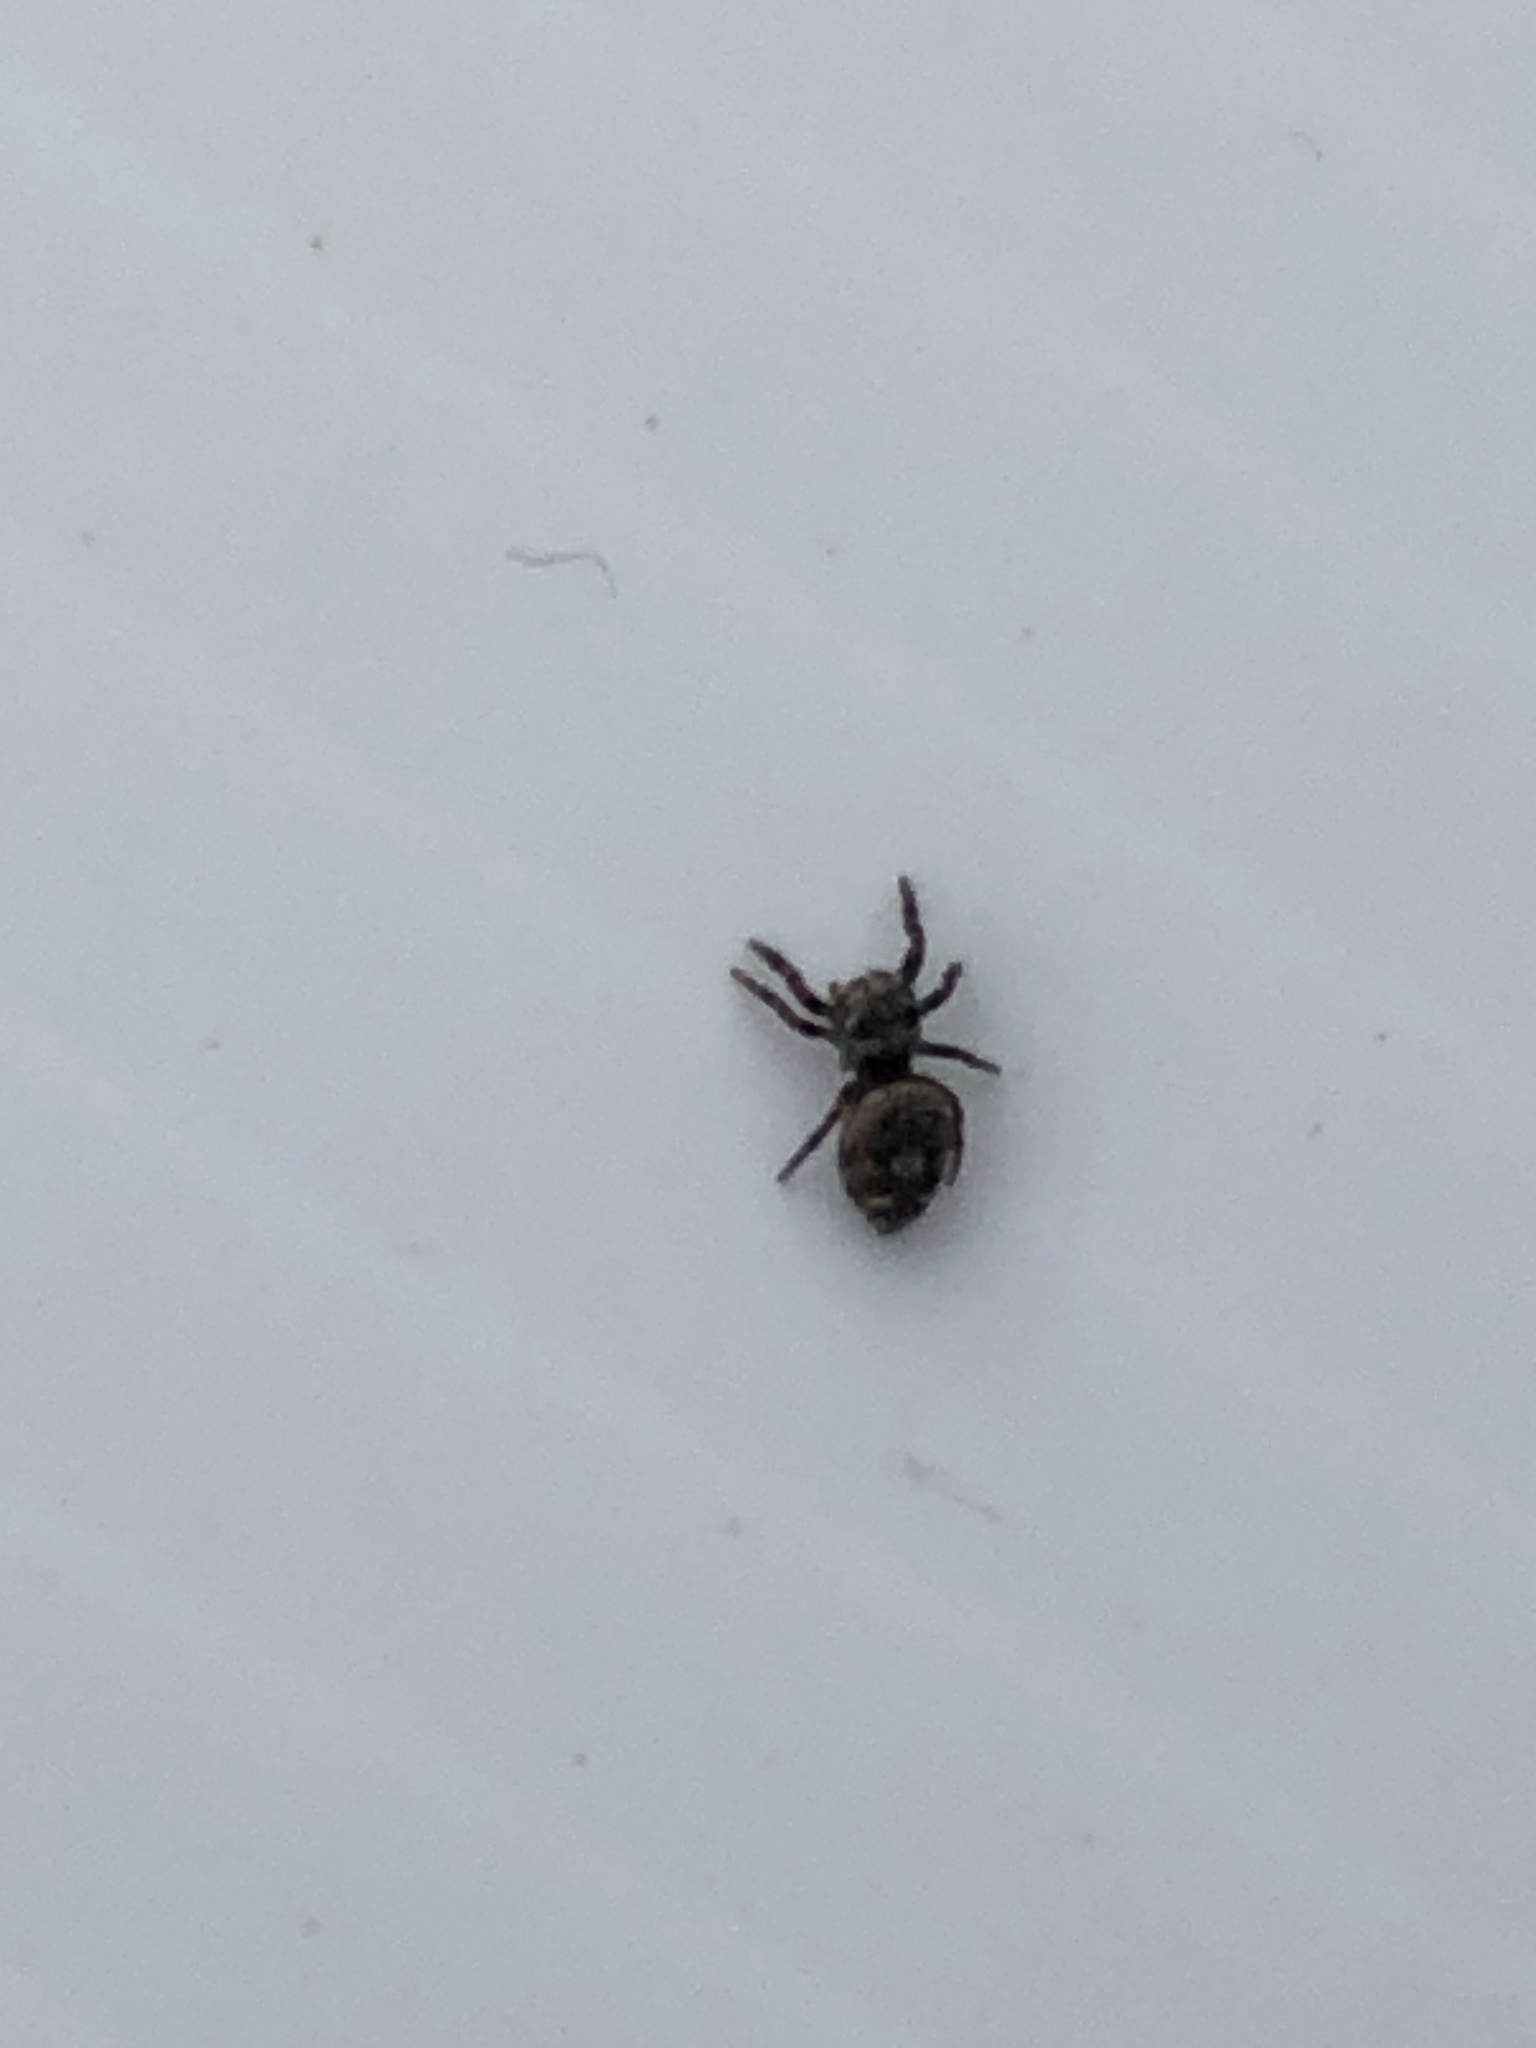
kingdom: Animalia
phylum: Arthropoda
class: Arachnida
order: Araneae
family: Salticidae
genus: Phidippus
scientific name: Phidippus putnami
